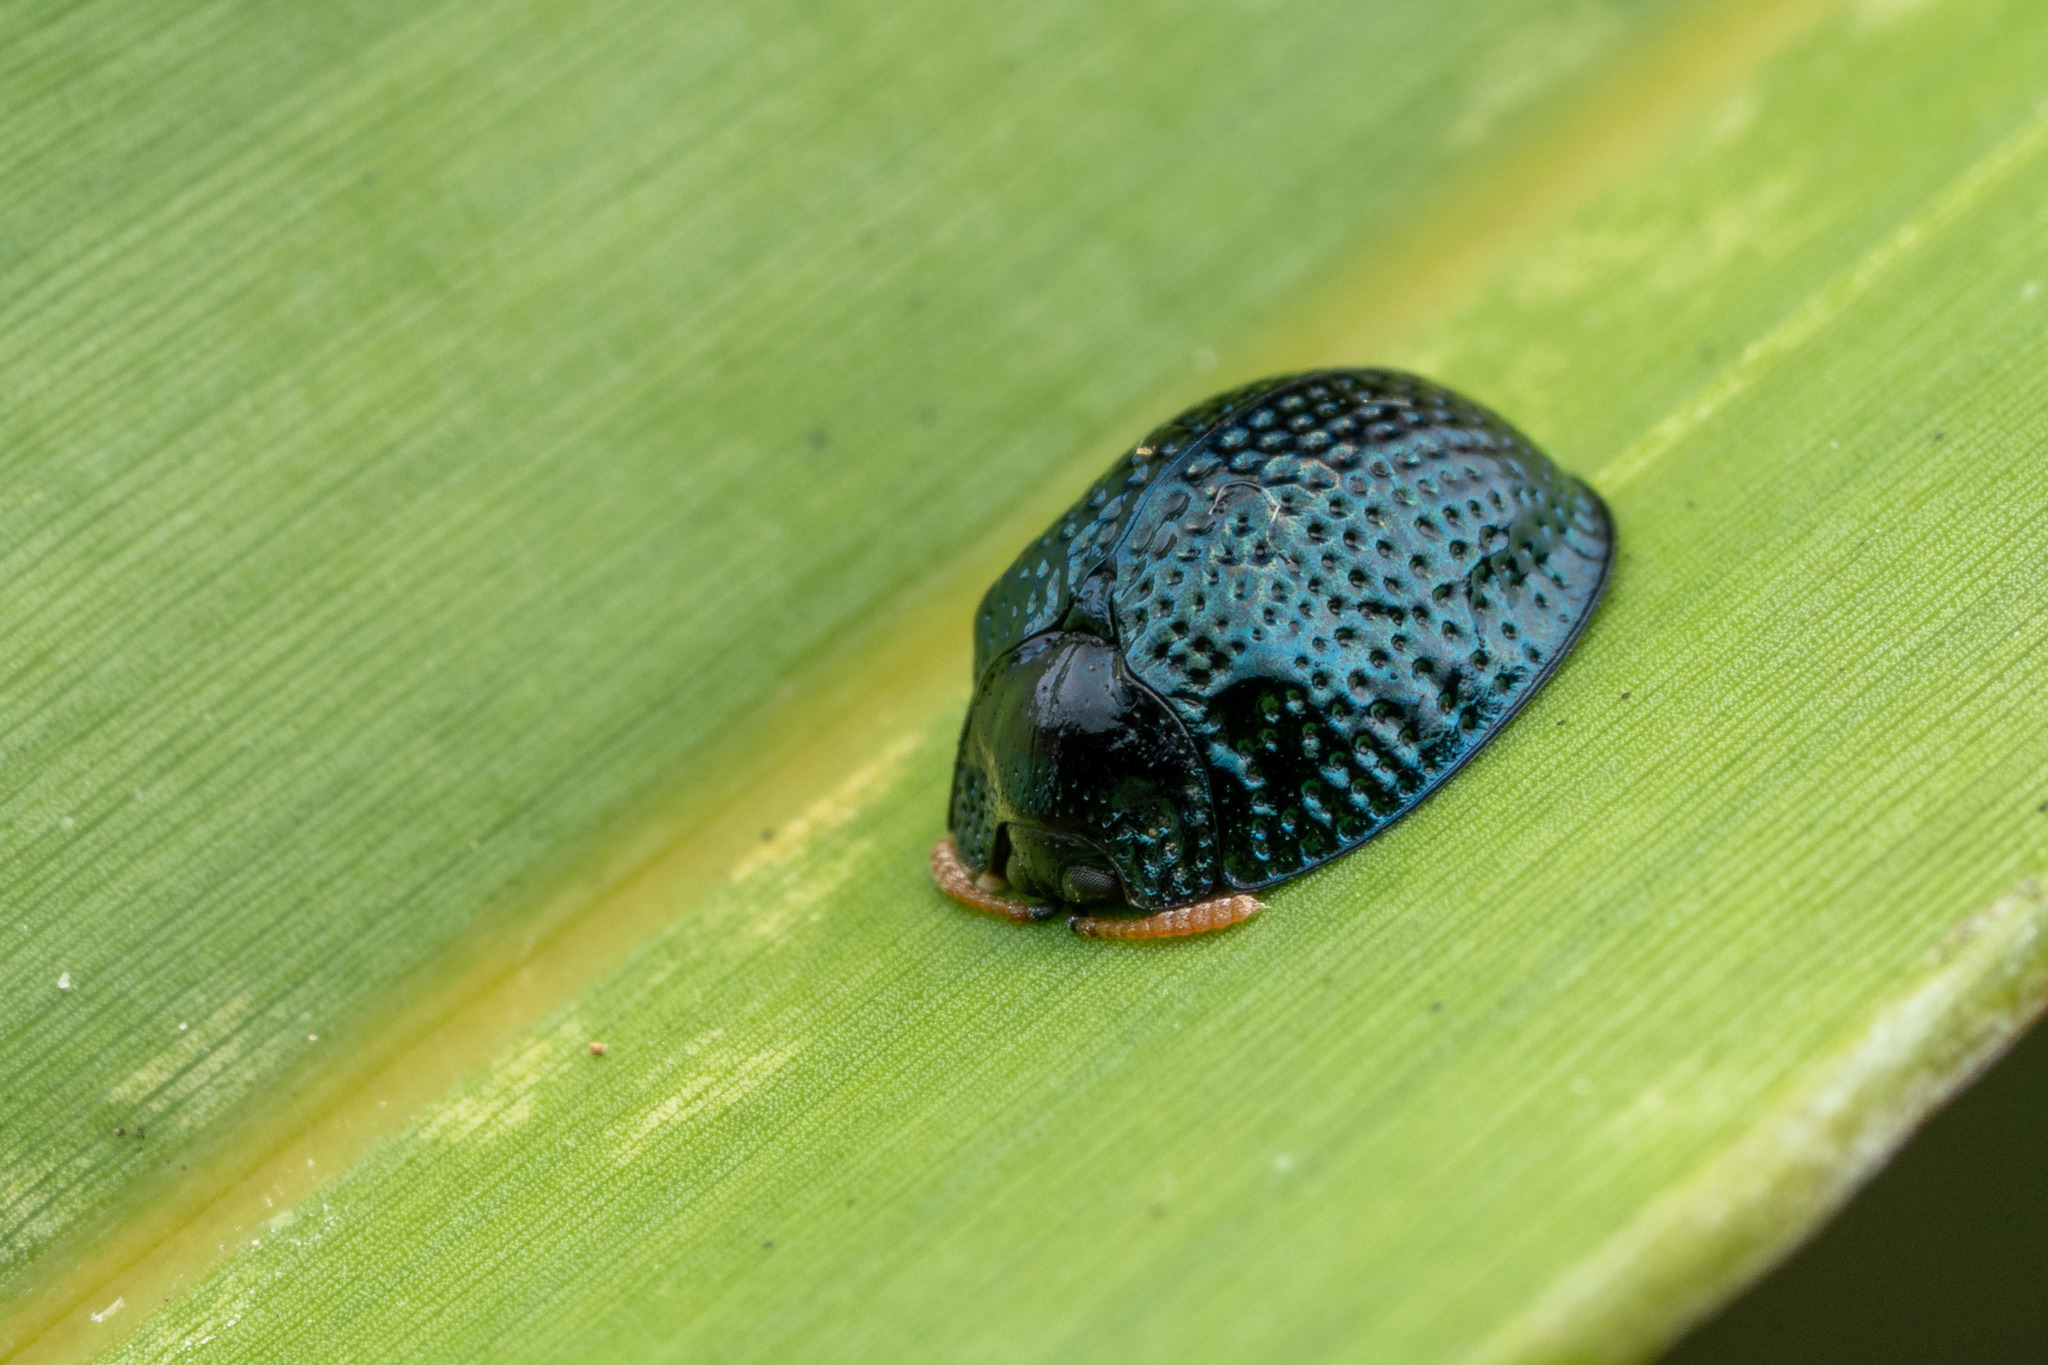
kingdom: Animalia
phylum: Arthropoda
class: Insecta
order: Coleoptera
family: Chrysomelidae
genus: Hemisphaerota
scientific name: Hemisphaerota cyanea
